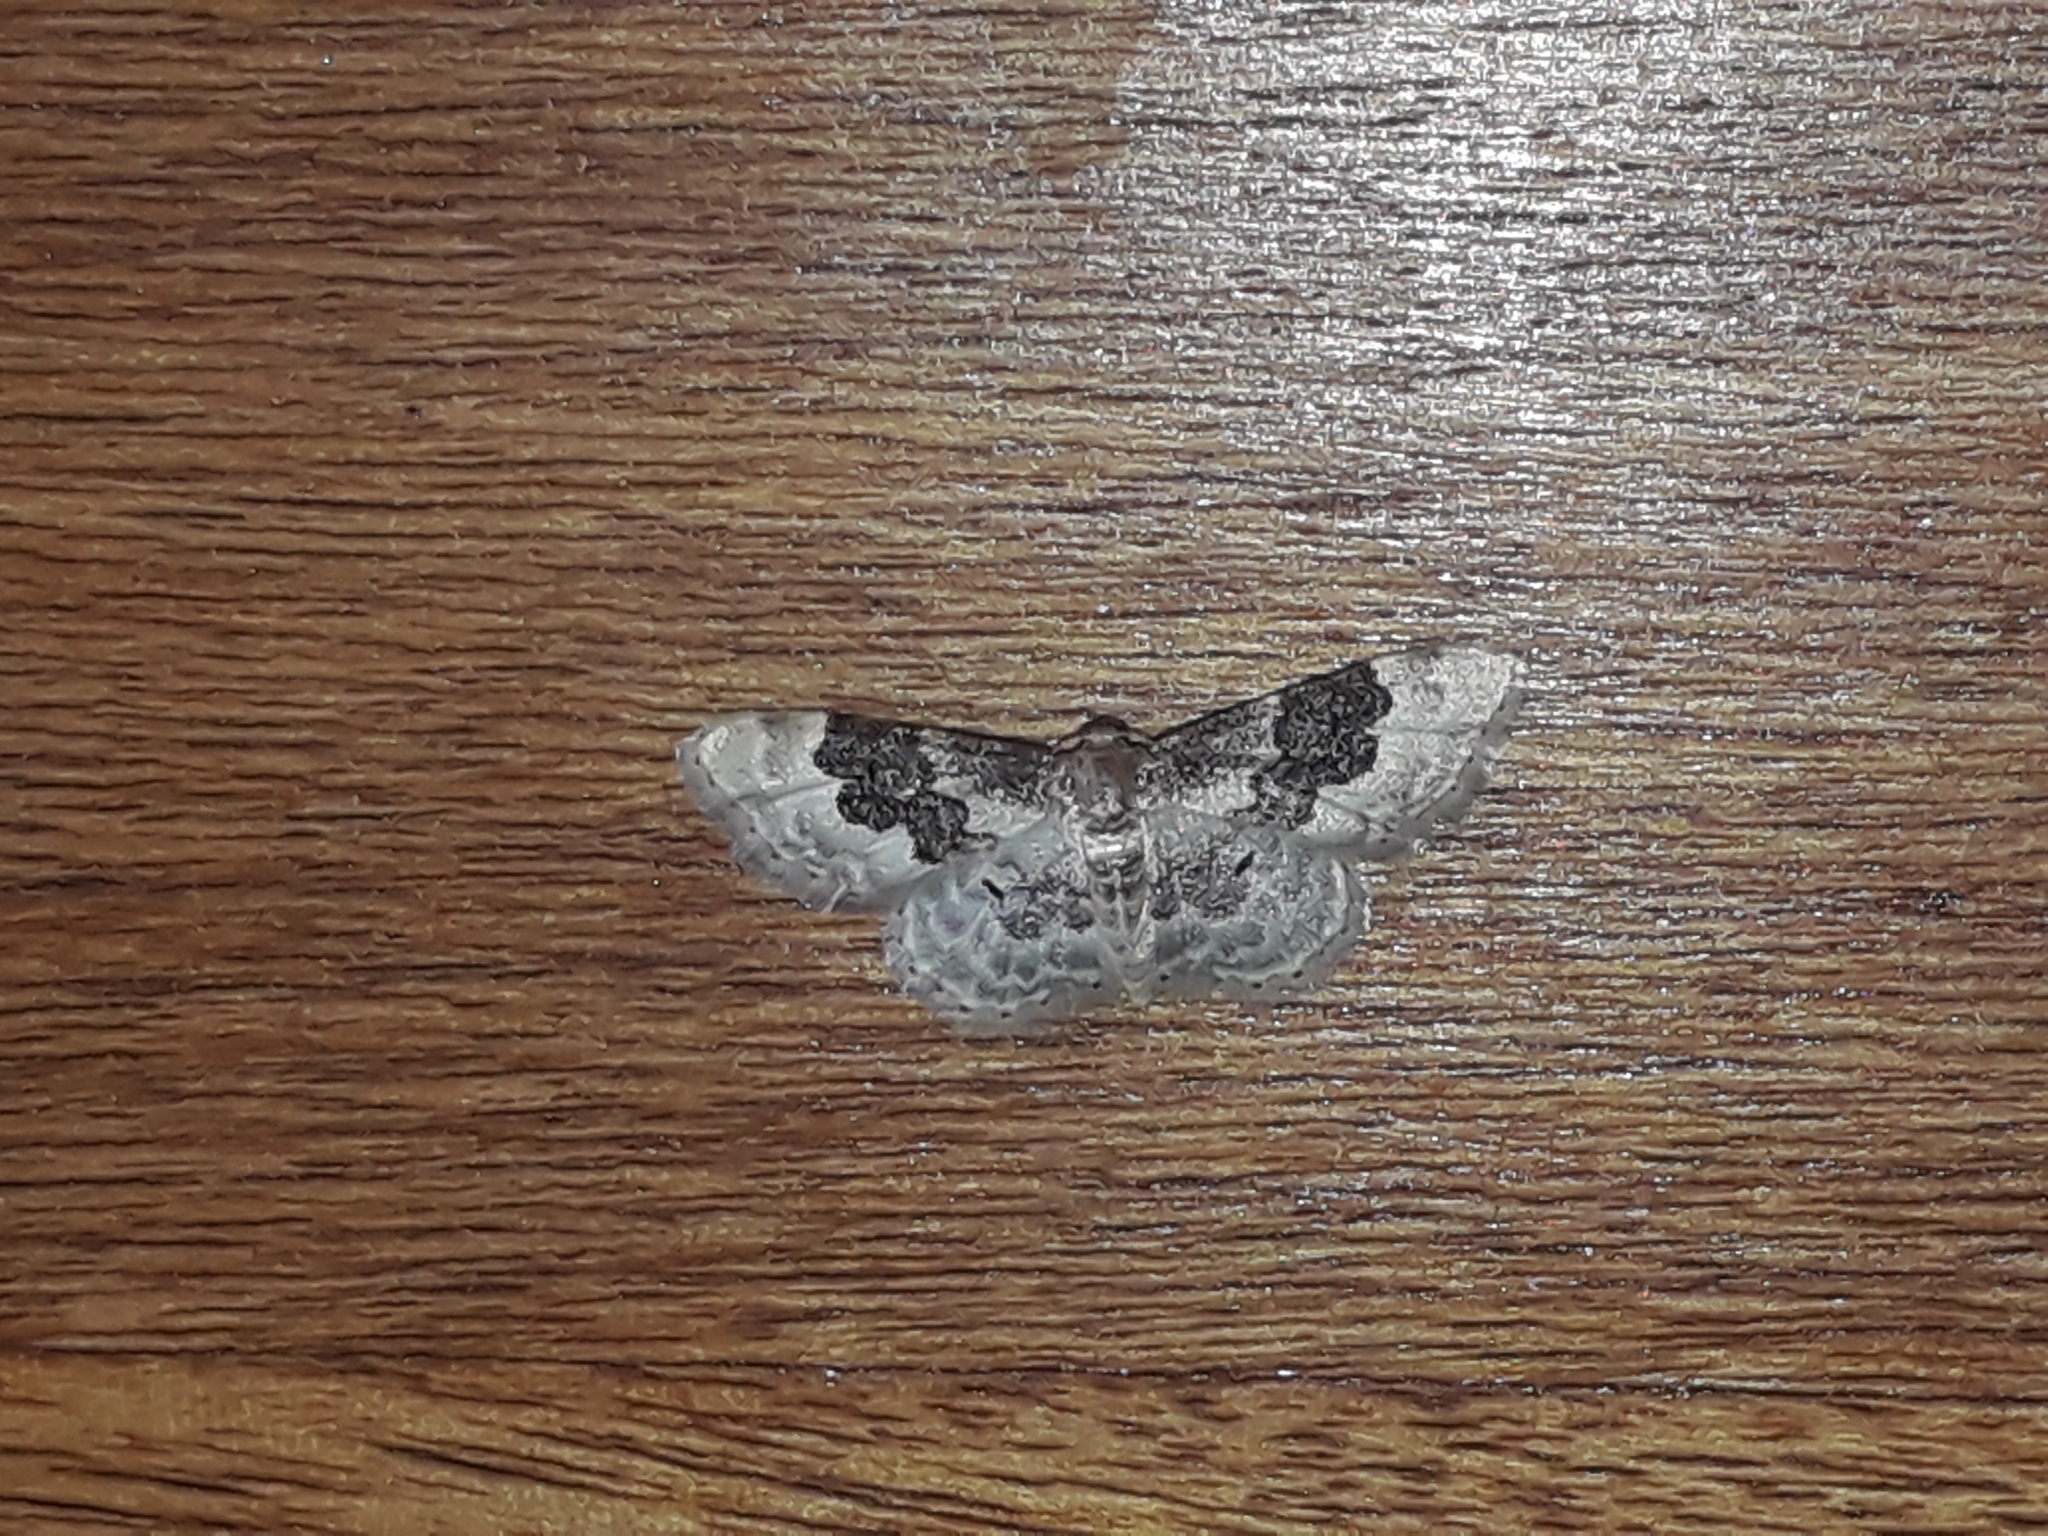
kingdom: Animalia
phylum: Arthropoda
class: Insecta
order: Lepidoptera
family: Geometridae
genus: Idaea
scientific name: Idaea rusticata
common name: Least carpet
